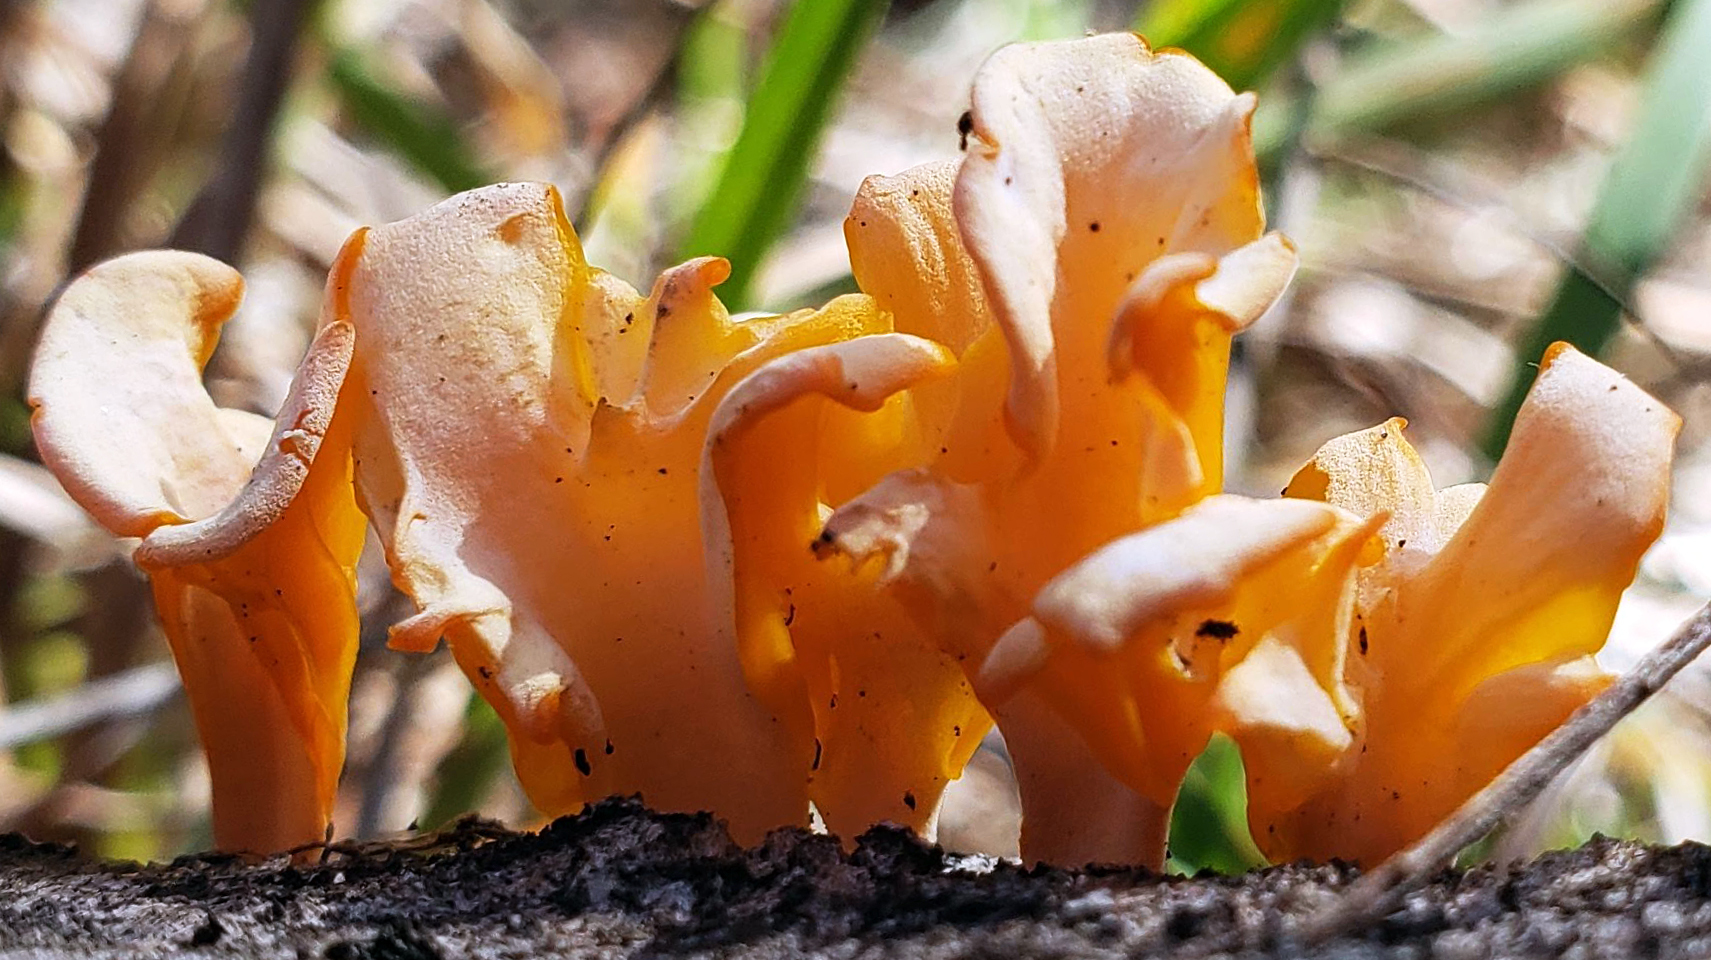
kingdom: Fungi
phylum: Basidiomycota
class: Agaricomycetes
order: Auriculariales
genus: Guepinia
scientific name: Guepinia helvelloides
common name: Salmon salad
